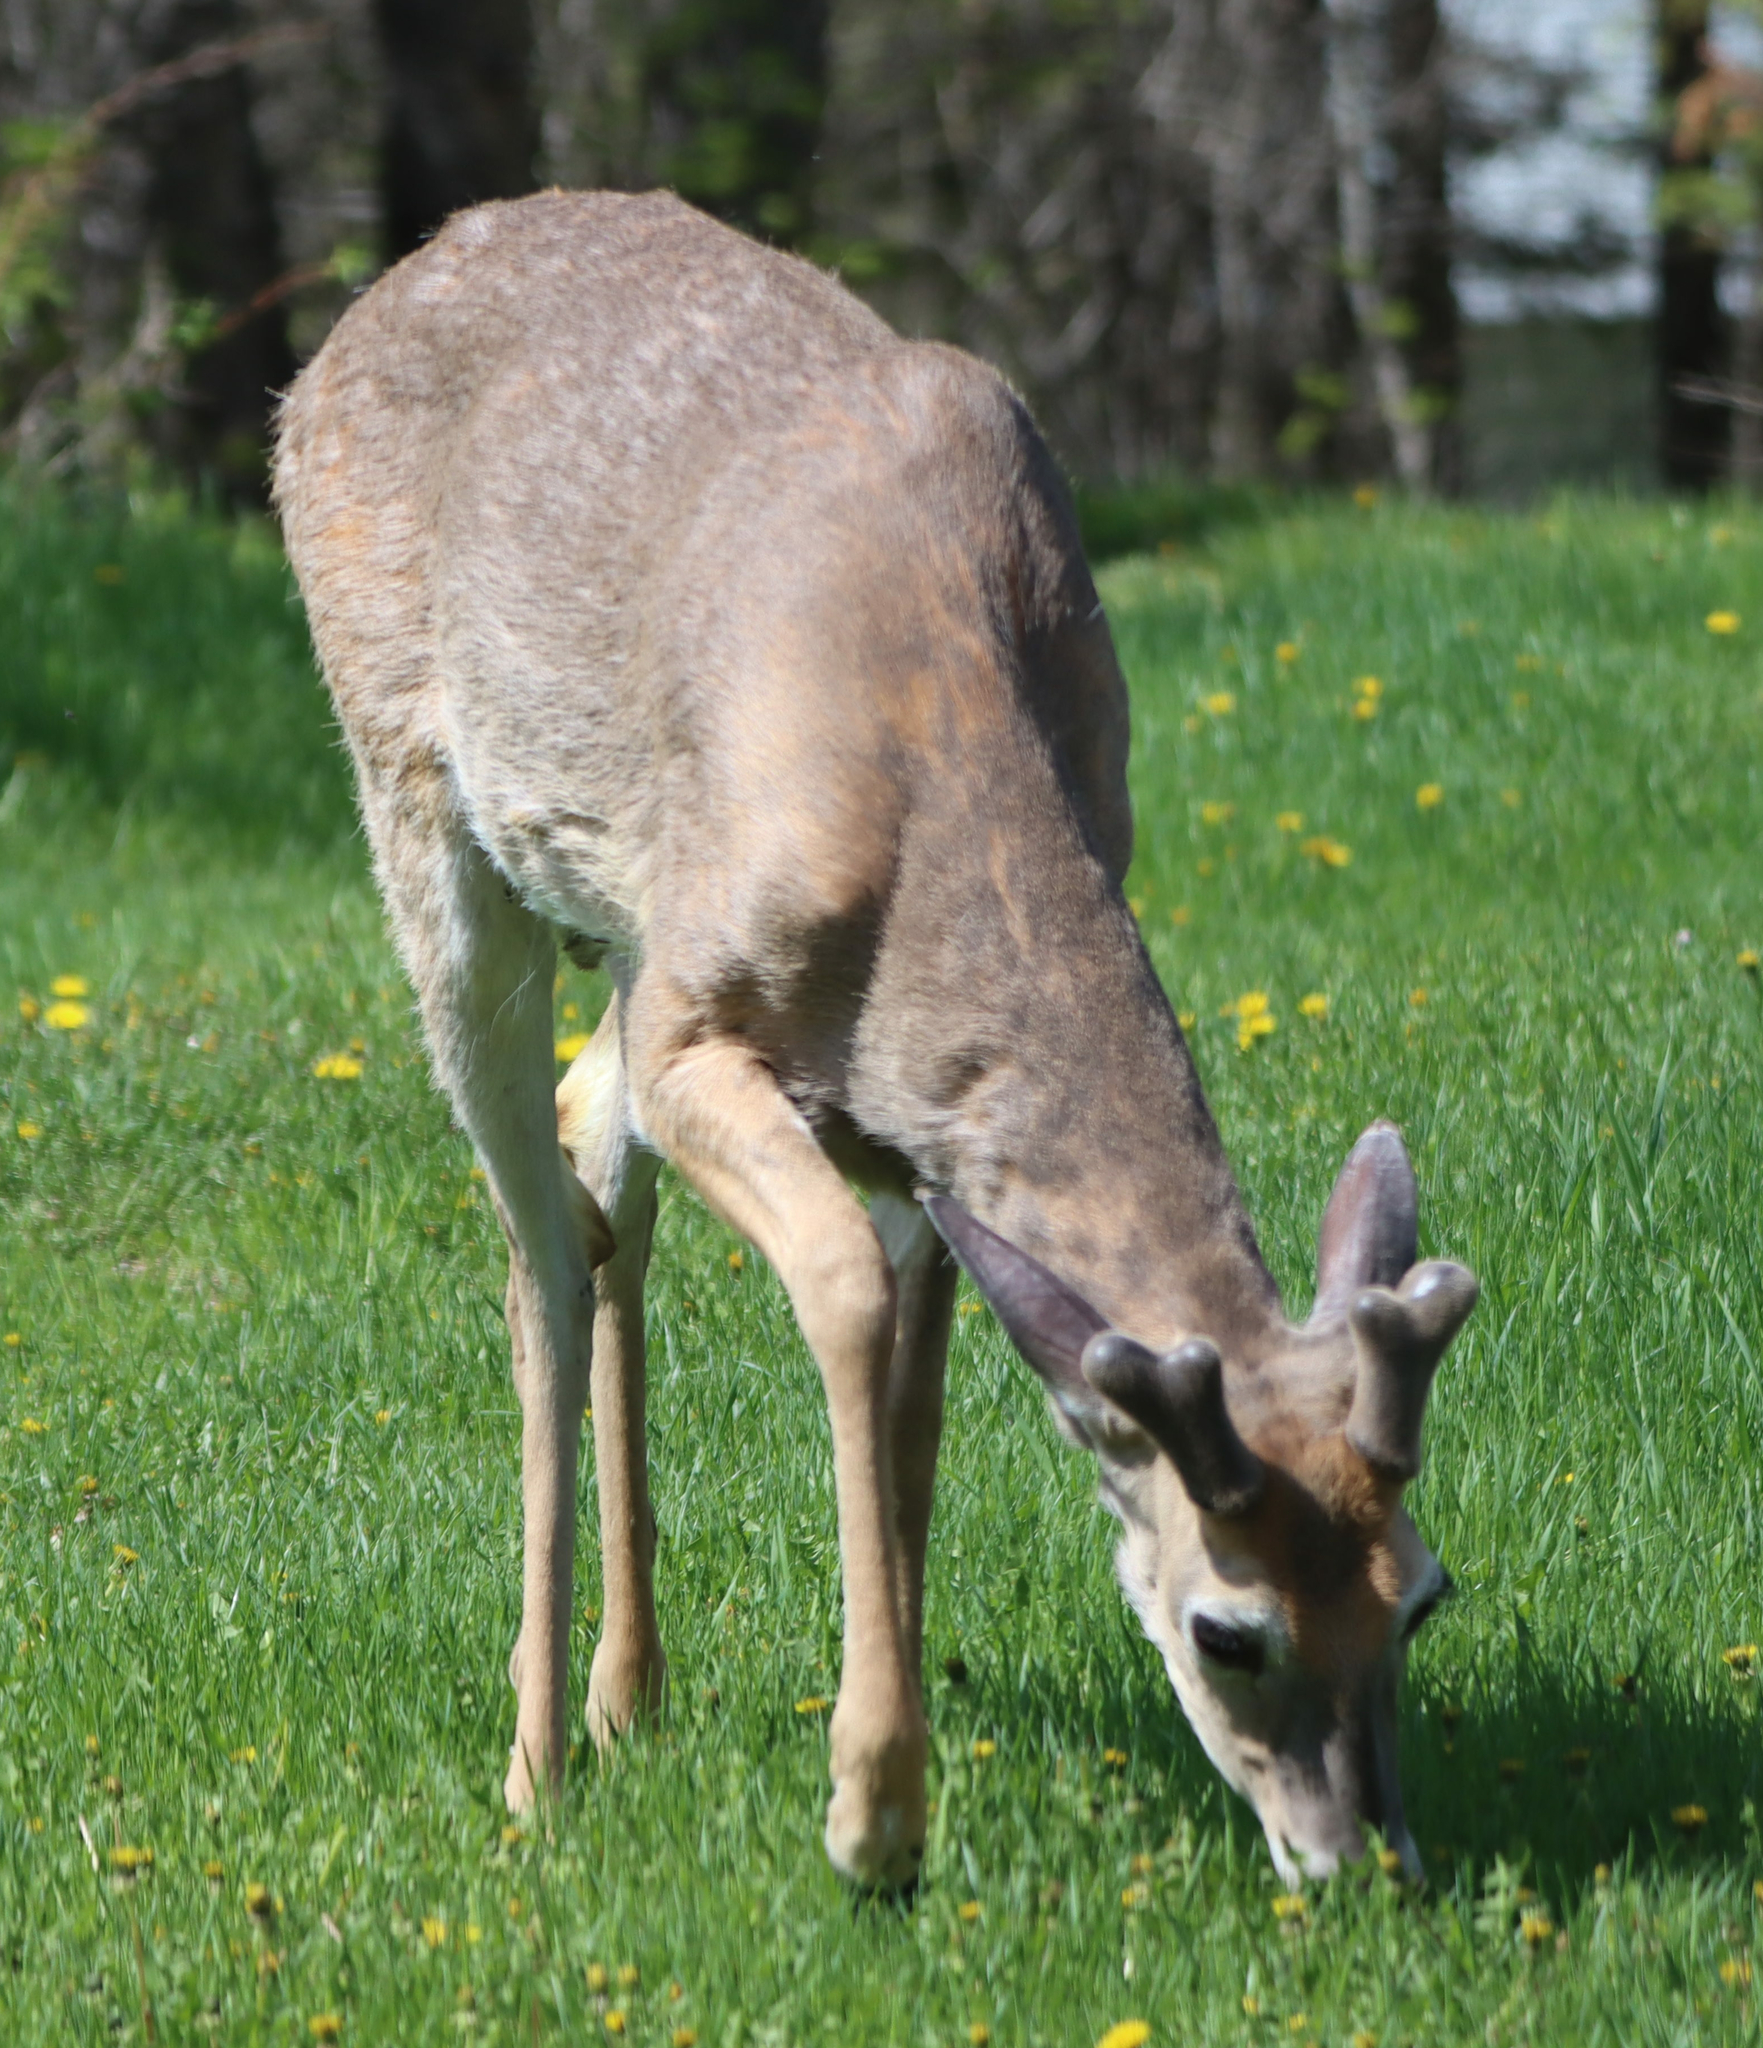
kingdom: Animalia
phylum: Chordata
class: Mammalia
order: Artiodactyla
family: Cervidae
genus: Odocoileus
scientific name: Odocoileus virginianus
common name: White-tailed deer
